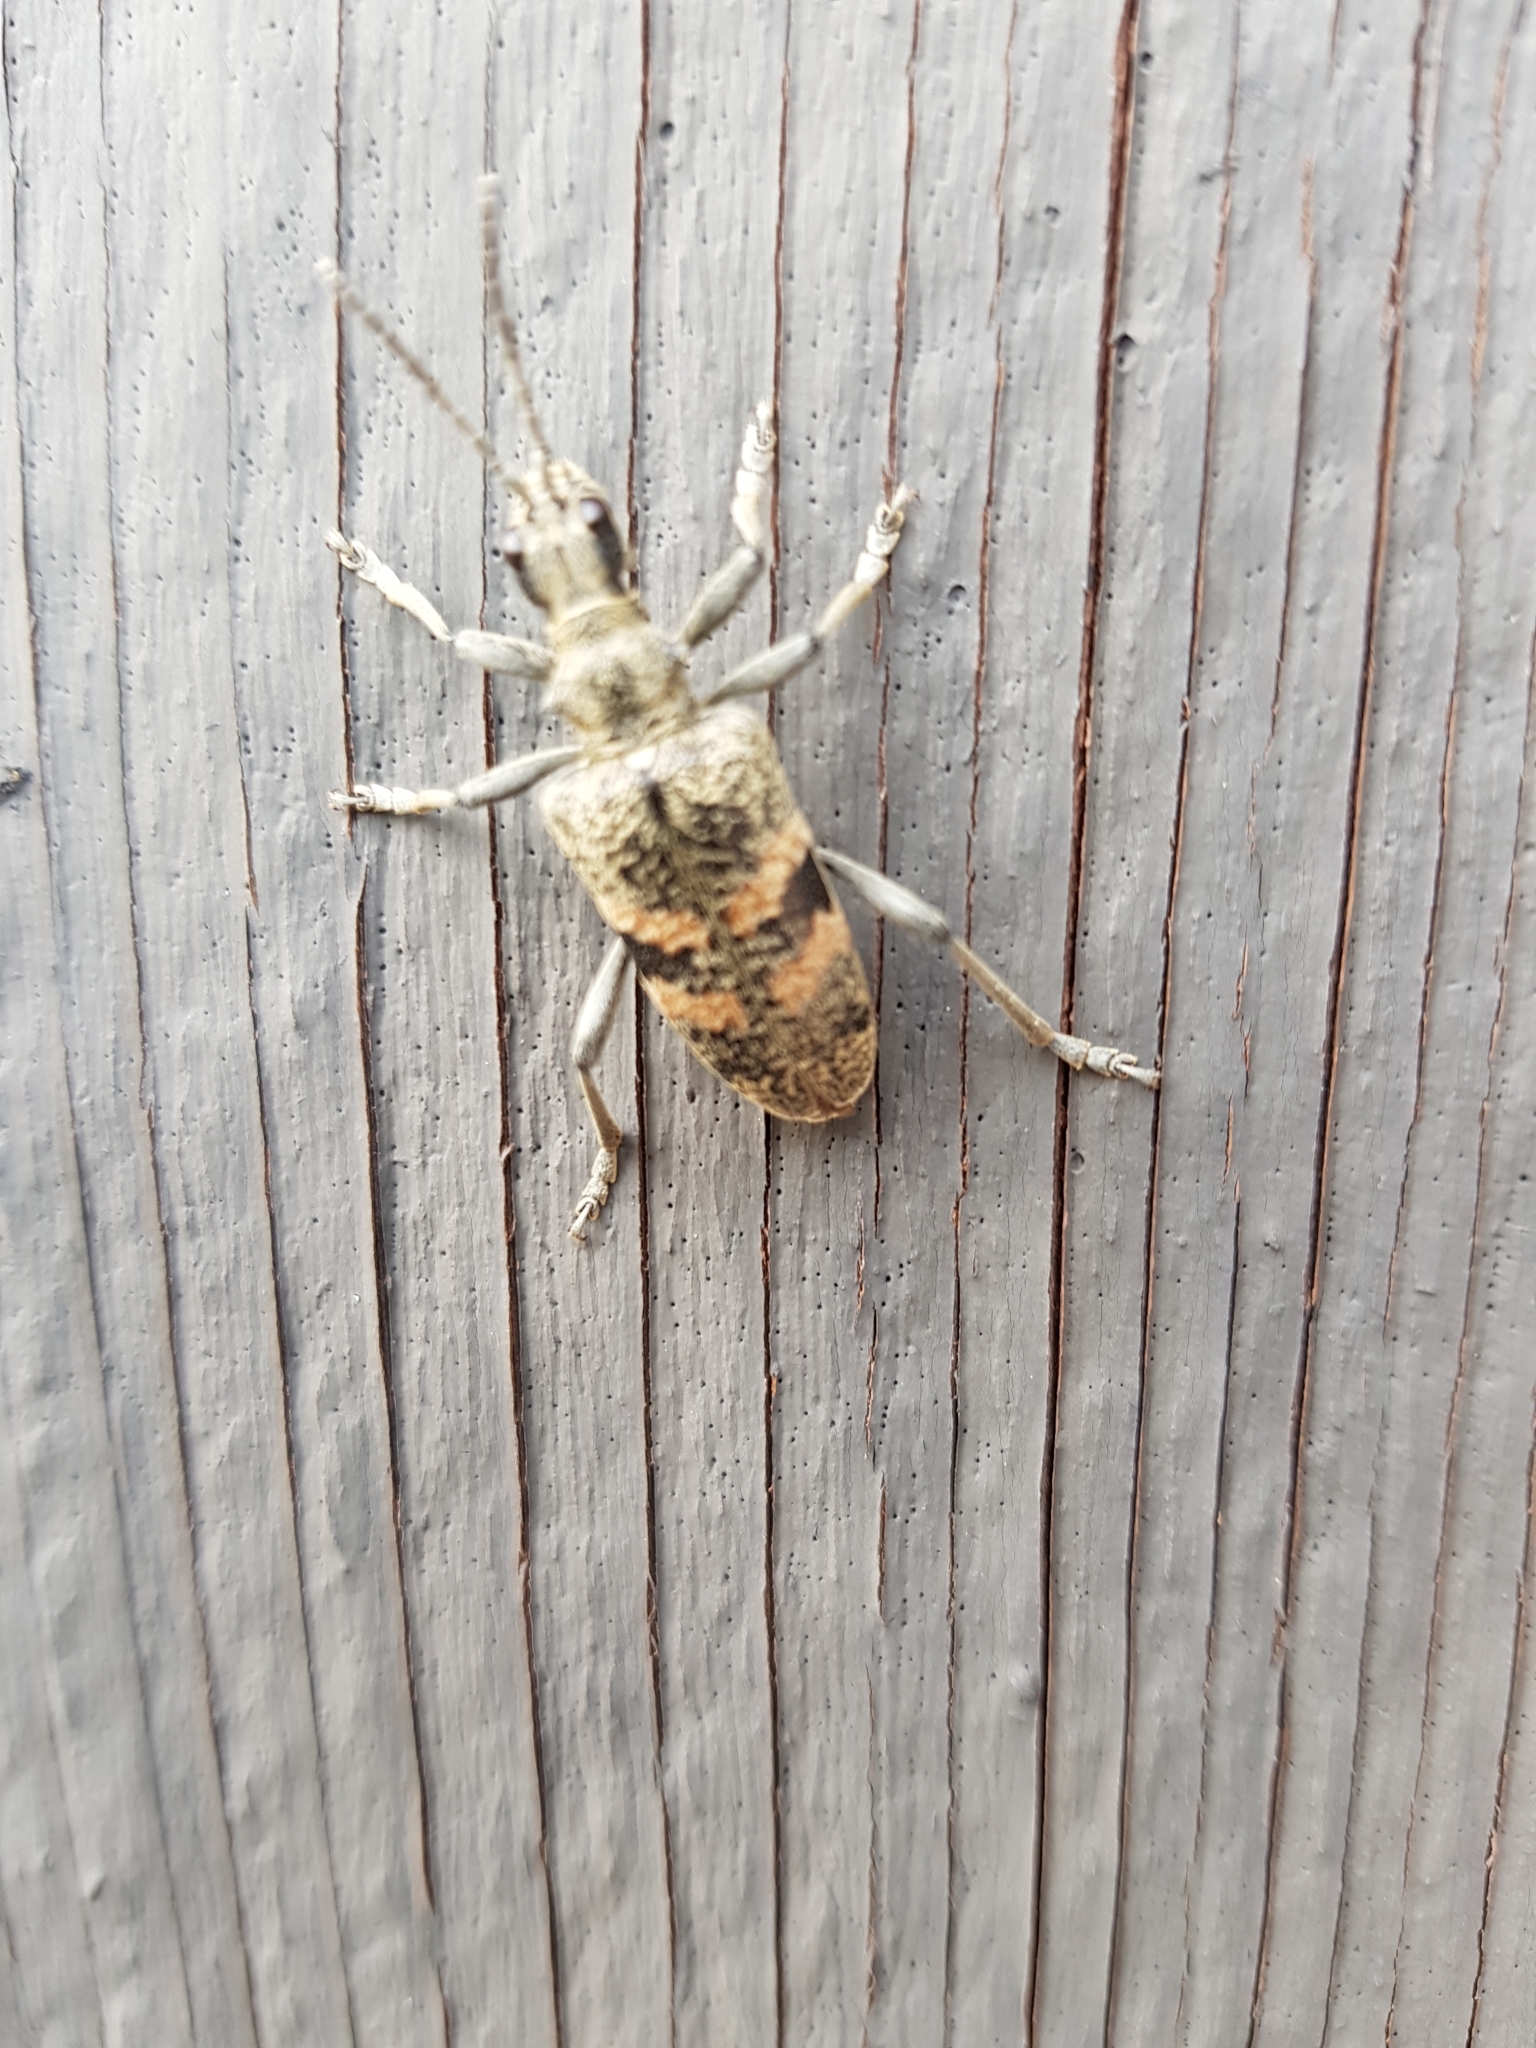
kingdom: Animalia
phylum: Arthropoda
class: Insecta
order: Coleoptera
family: Cerambycidae
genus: Rhagium
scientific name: Rhagium mordax
